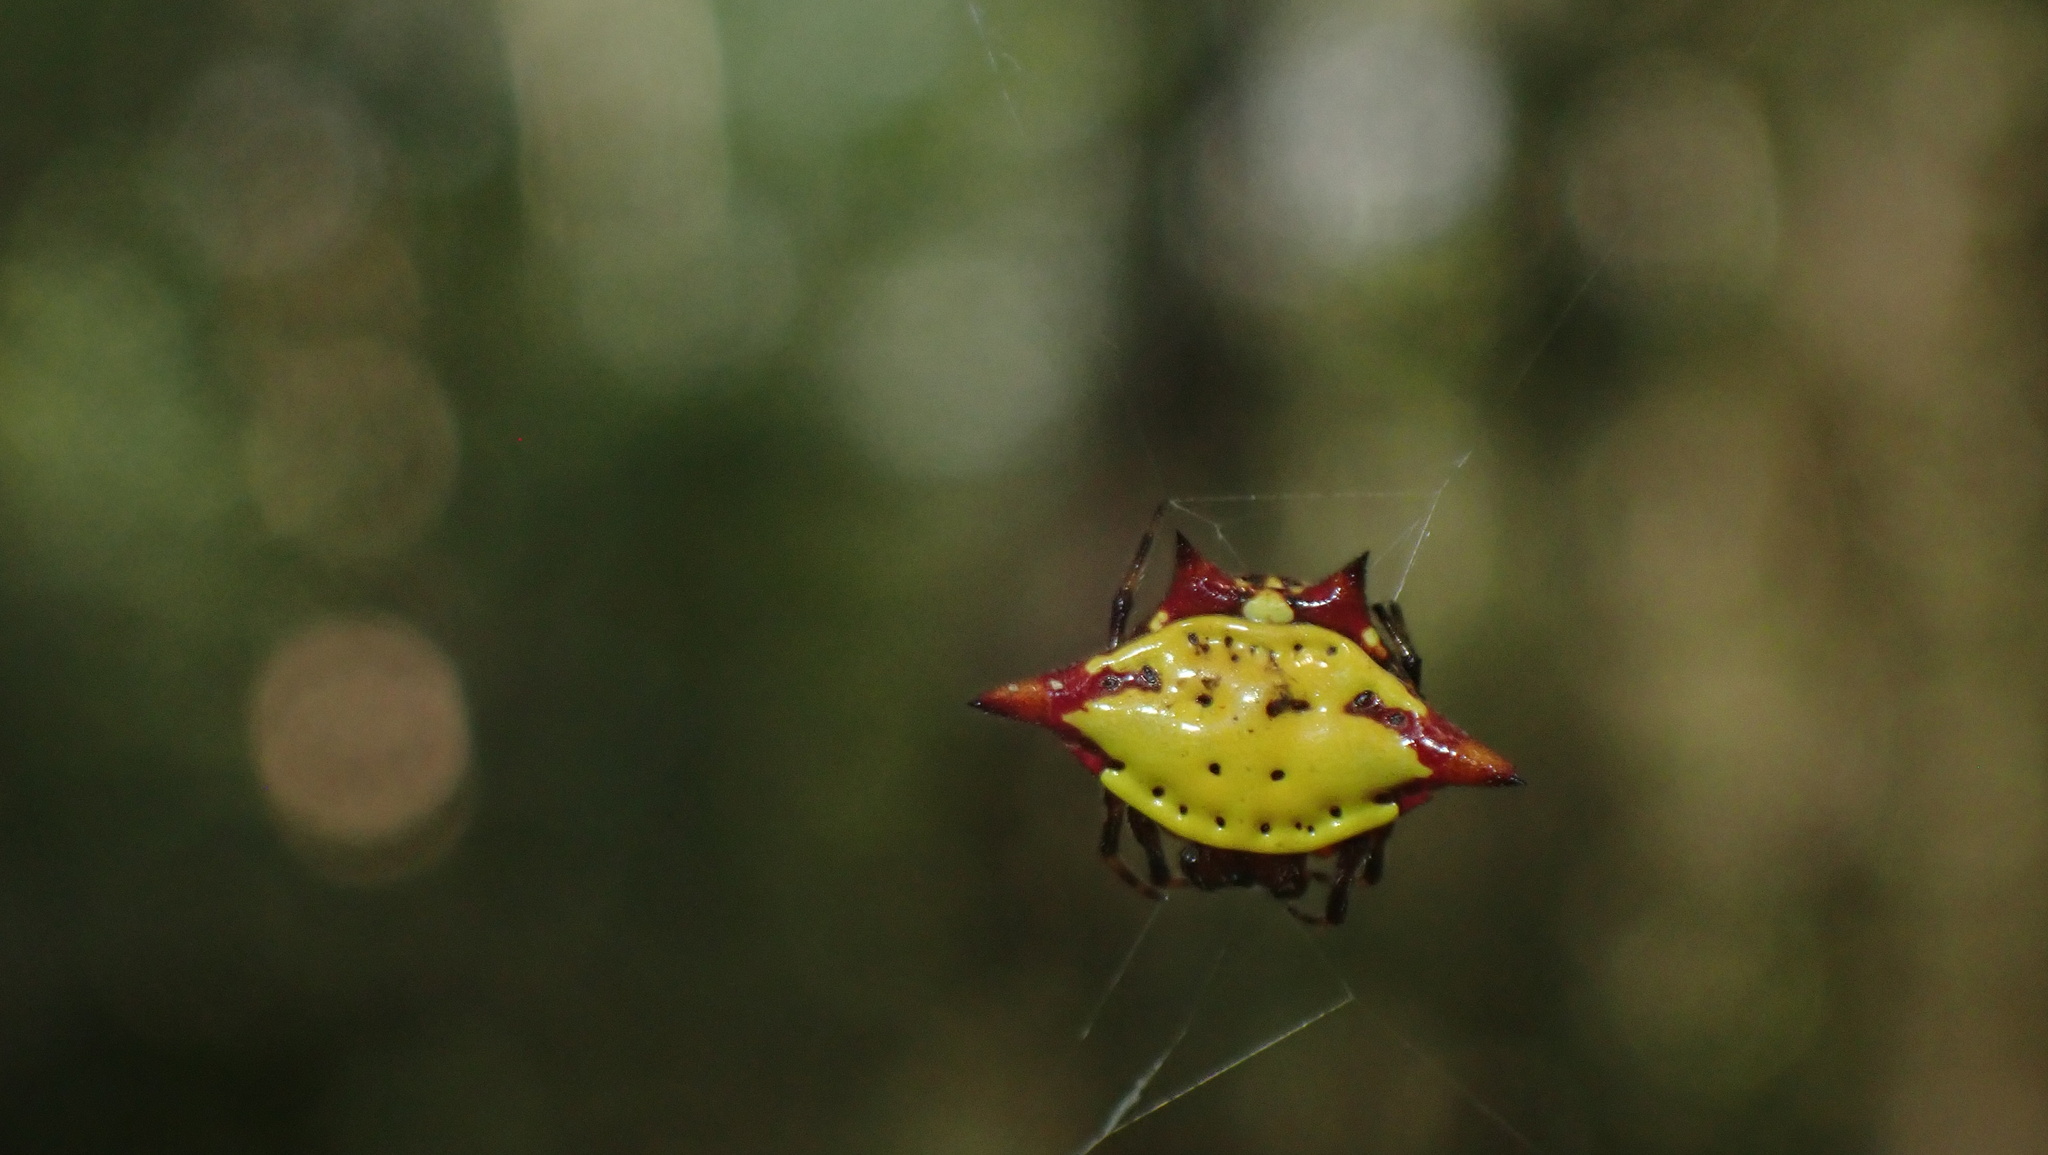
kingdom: Animalia
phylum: Arthropoda
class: Arachnida
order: Araneae
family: Araneidae
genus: Gasteracantha
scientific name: Gasteracantha cancriformis
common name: Orb weavers
